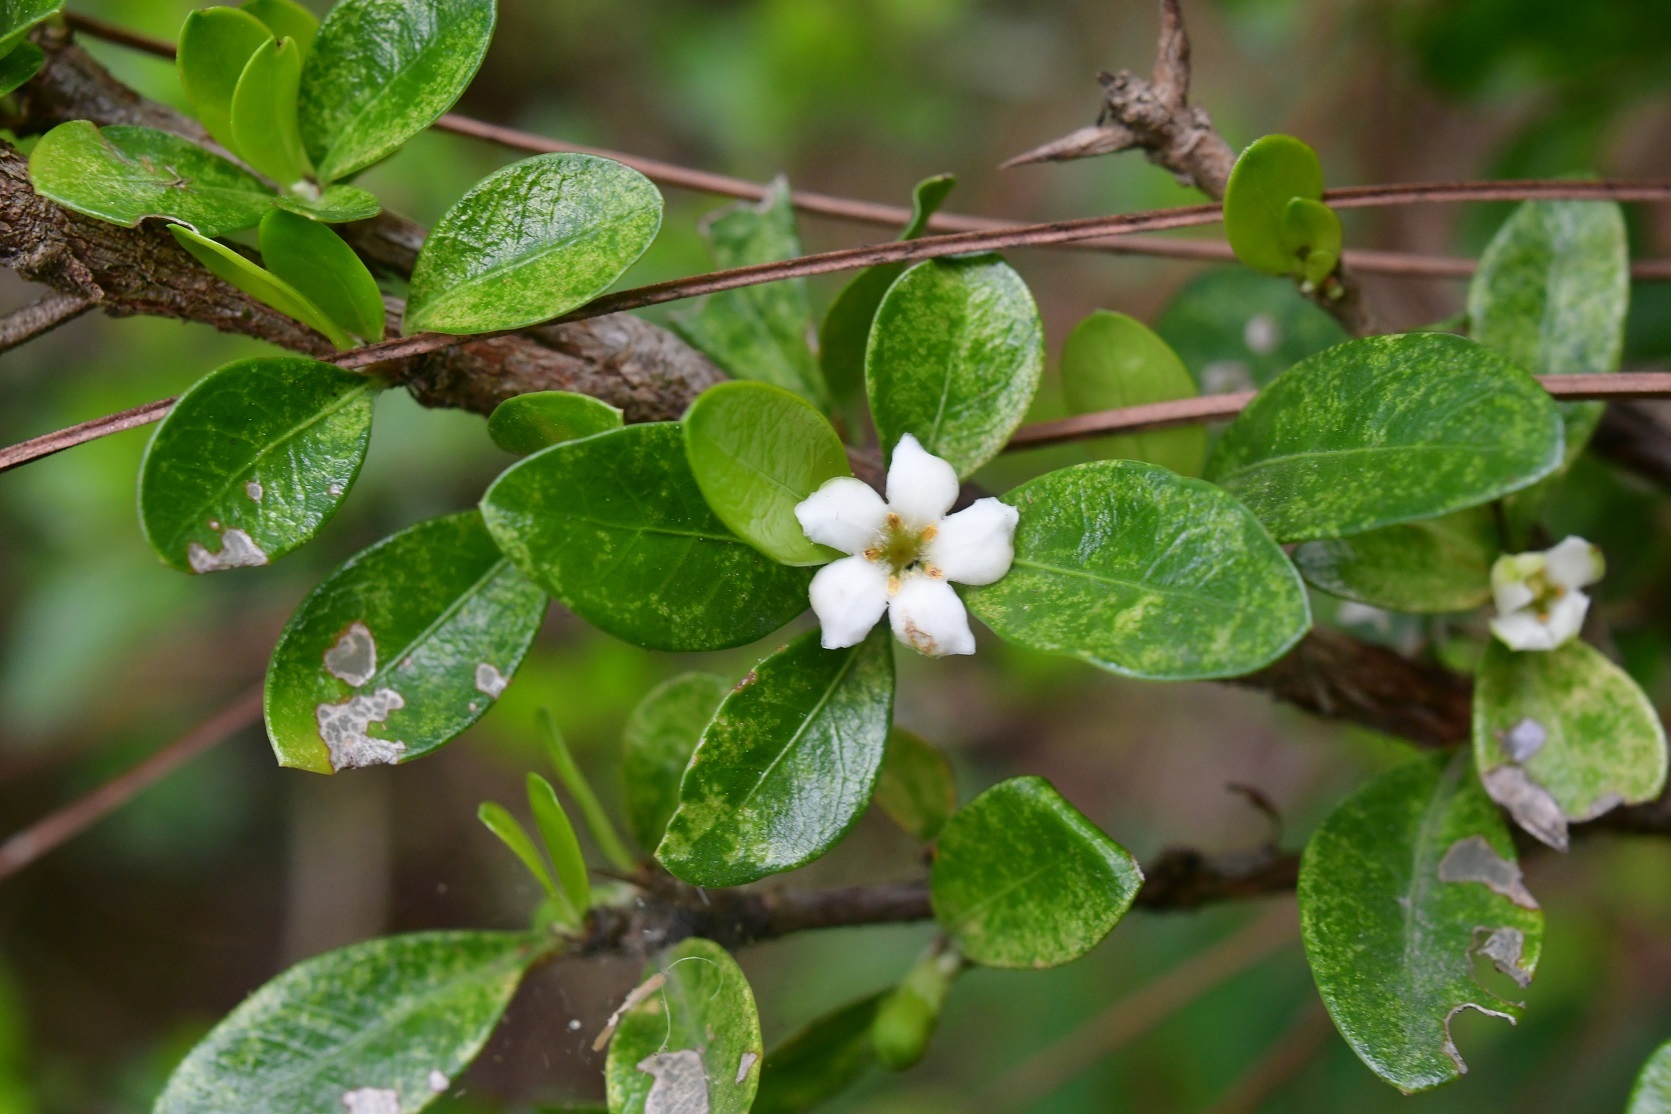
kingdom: Plantae
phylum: Tracheophyta
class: Magnoliopsida
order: Gentianales
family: Rubiaceae
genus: Randia
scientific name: Randia chiapensis
